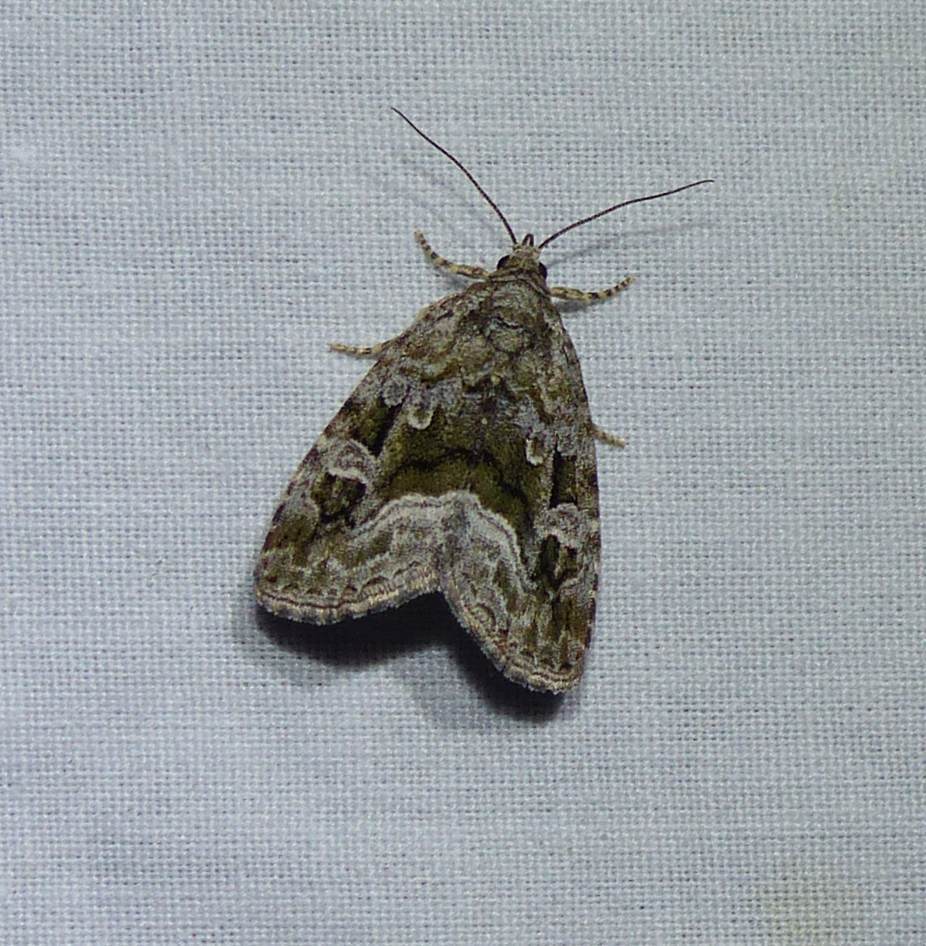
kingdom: Animalia
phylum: Arthropoda
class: Insecta
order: Lepidoptera
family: Noctuidae
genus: Protodeltote
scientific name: Protodeltote muscosula
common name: Large mossy glyph
